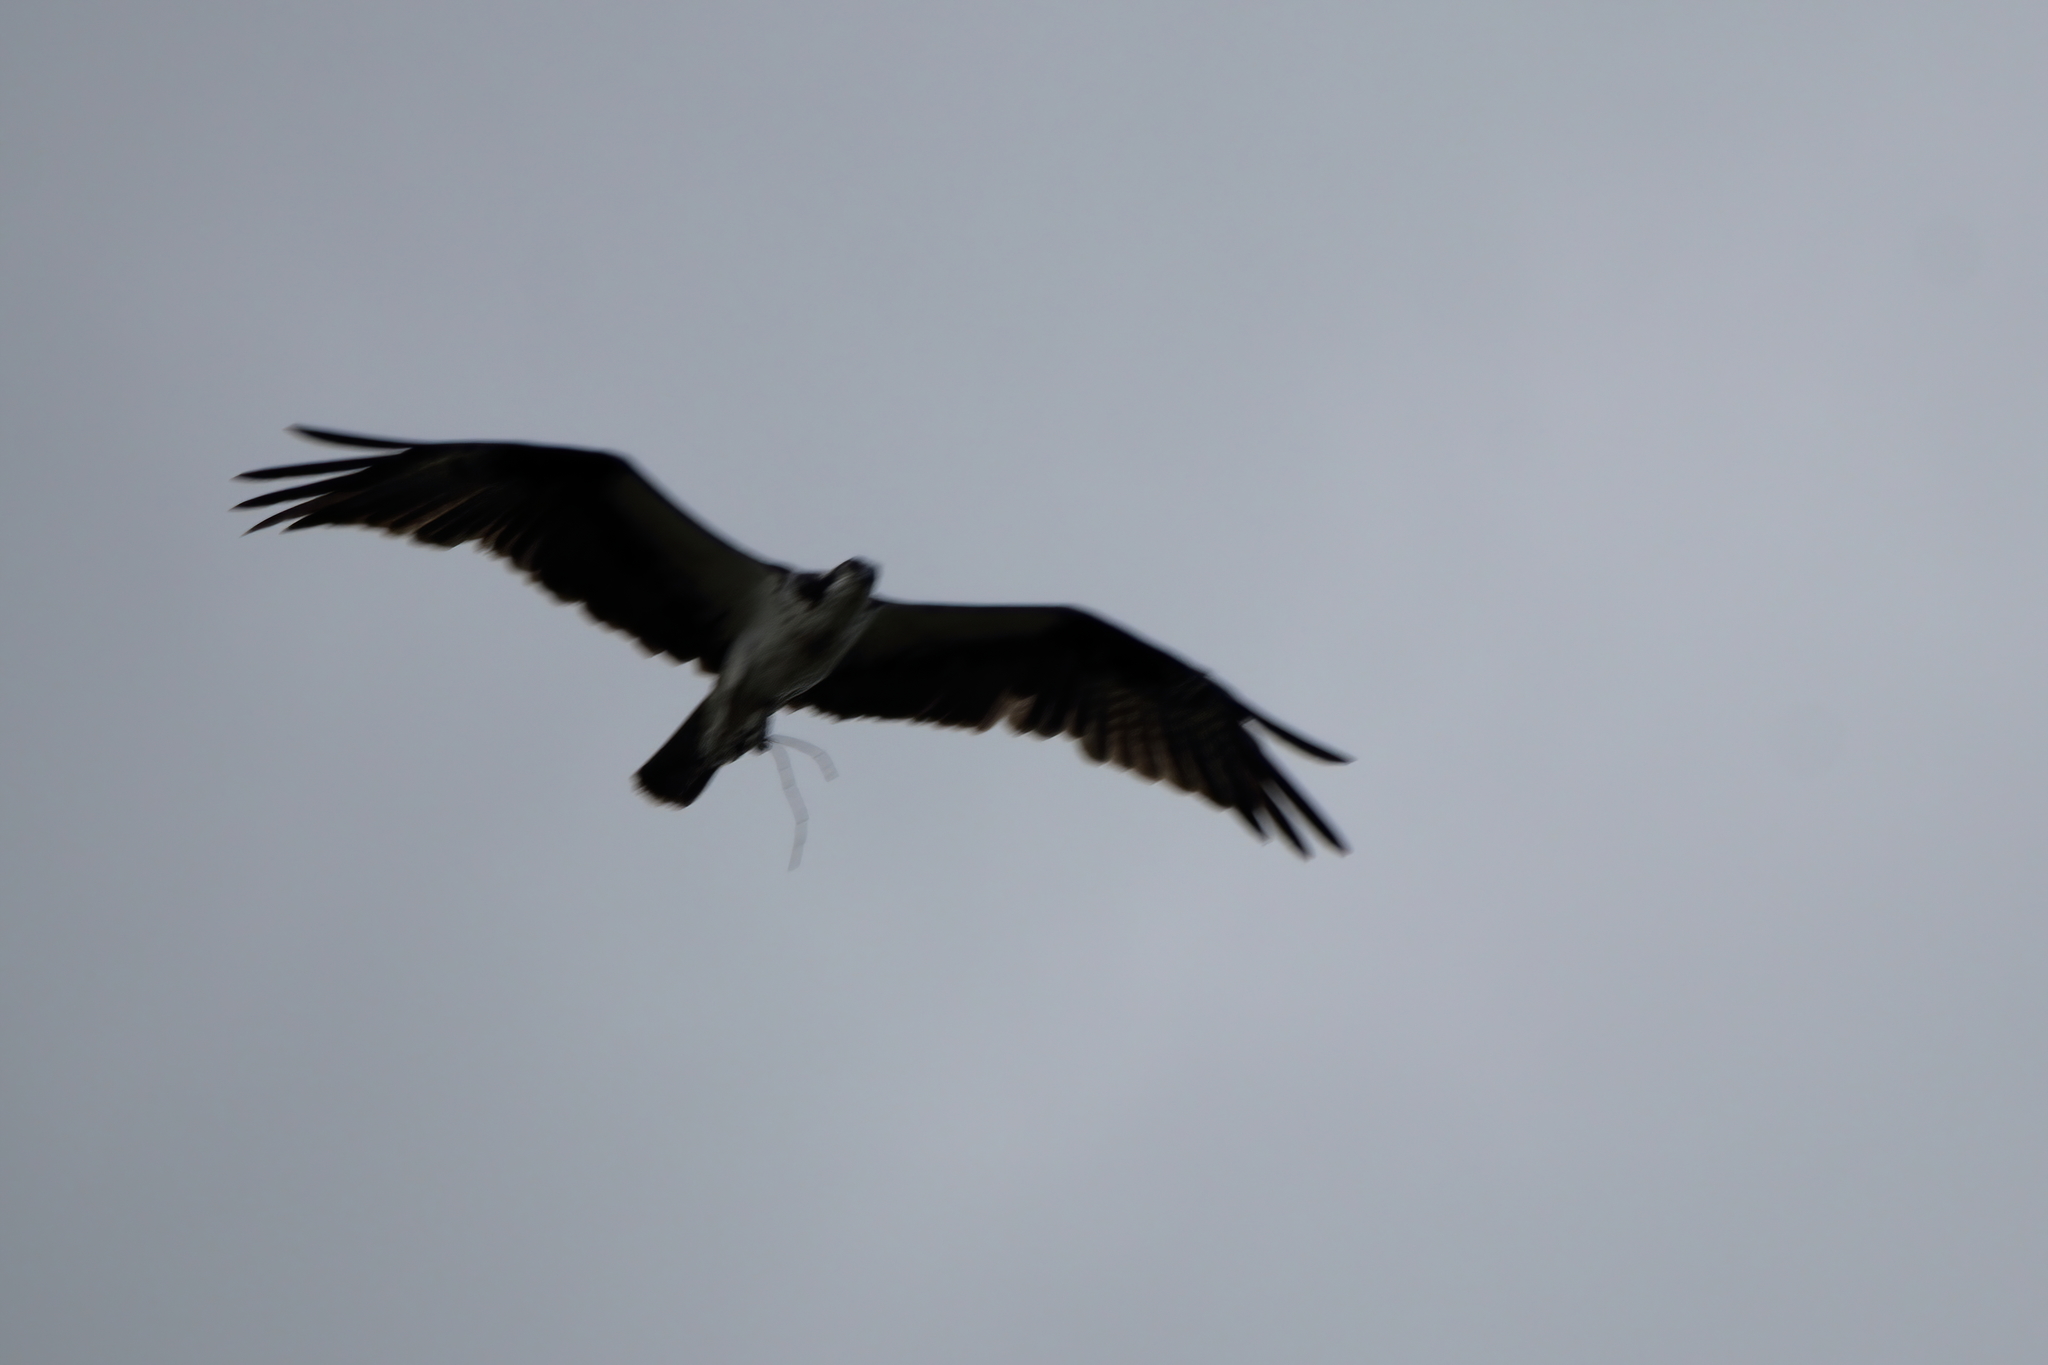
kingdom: Animalia
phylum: Chordata
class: Aves
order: Accipitriformes
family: Pandionidae
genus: Pandion
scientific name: Pandion haliaetus
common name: Osprey
